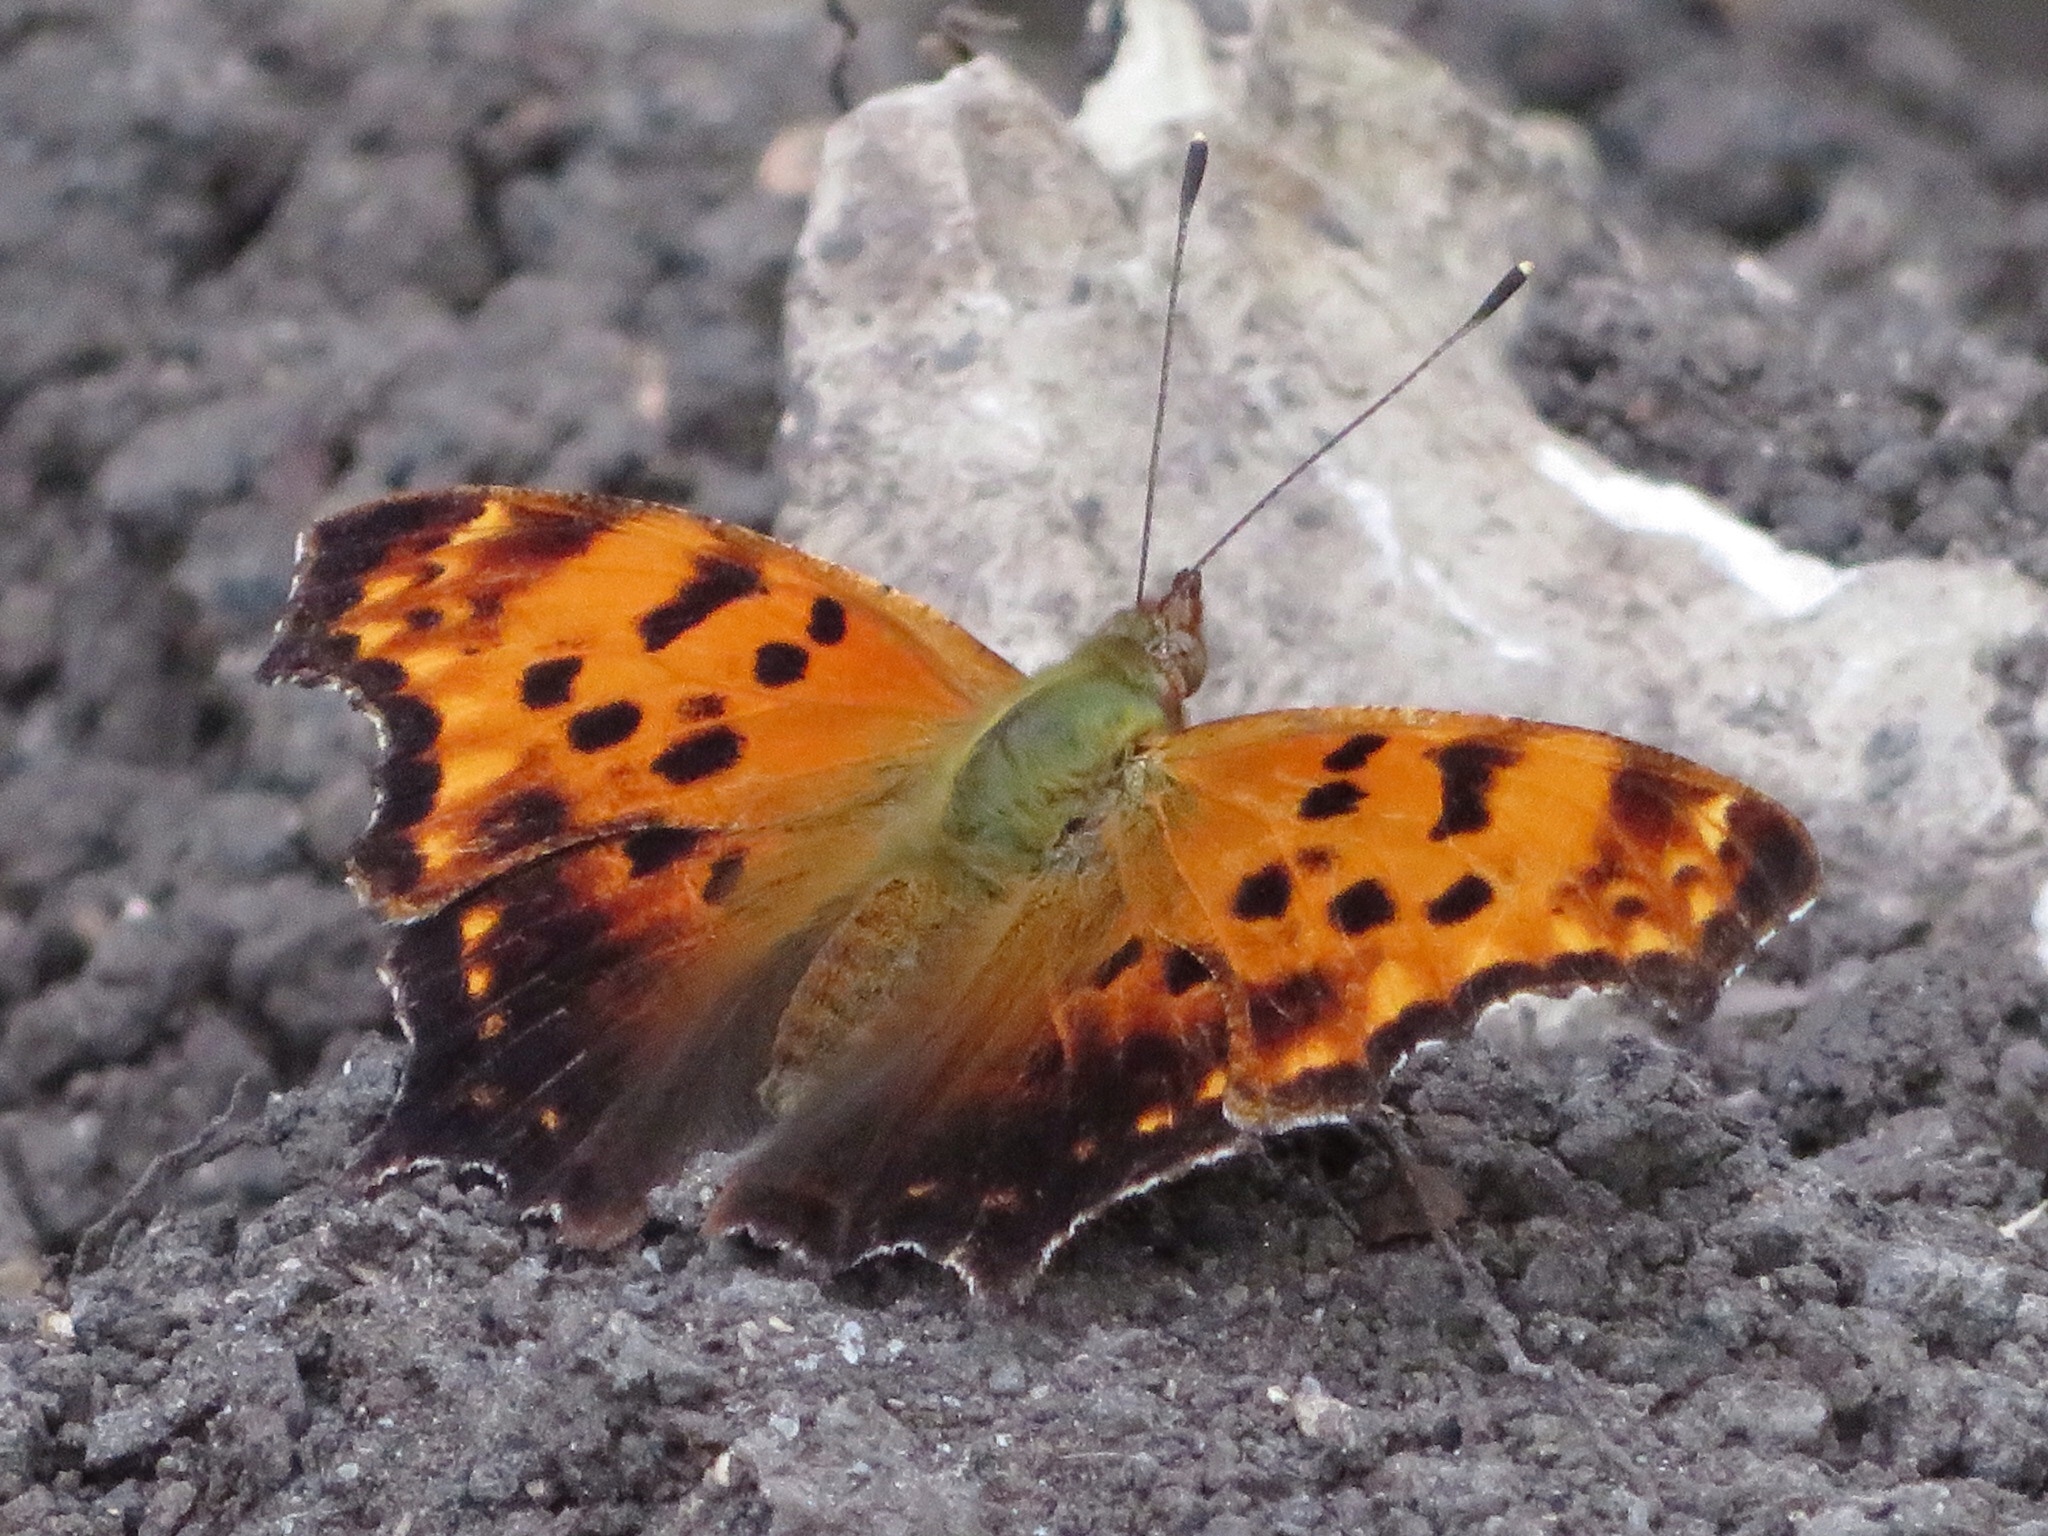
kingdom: Animalia
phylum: Arthropoda
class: Insecta
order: Lepidoptera
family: Nymphalidae
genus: Polygonia
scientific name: Polygonia comma
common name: Eastern comma
